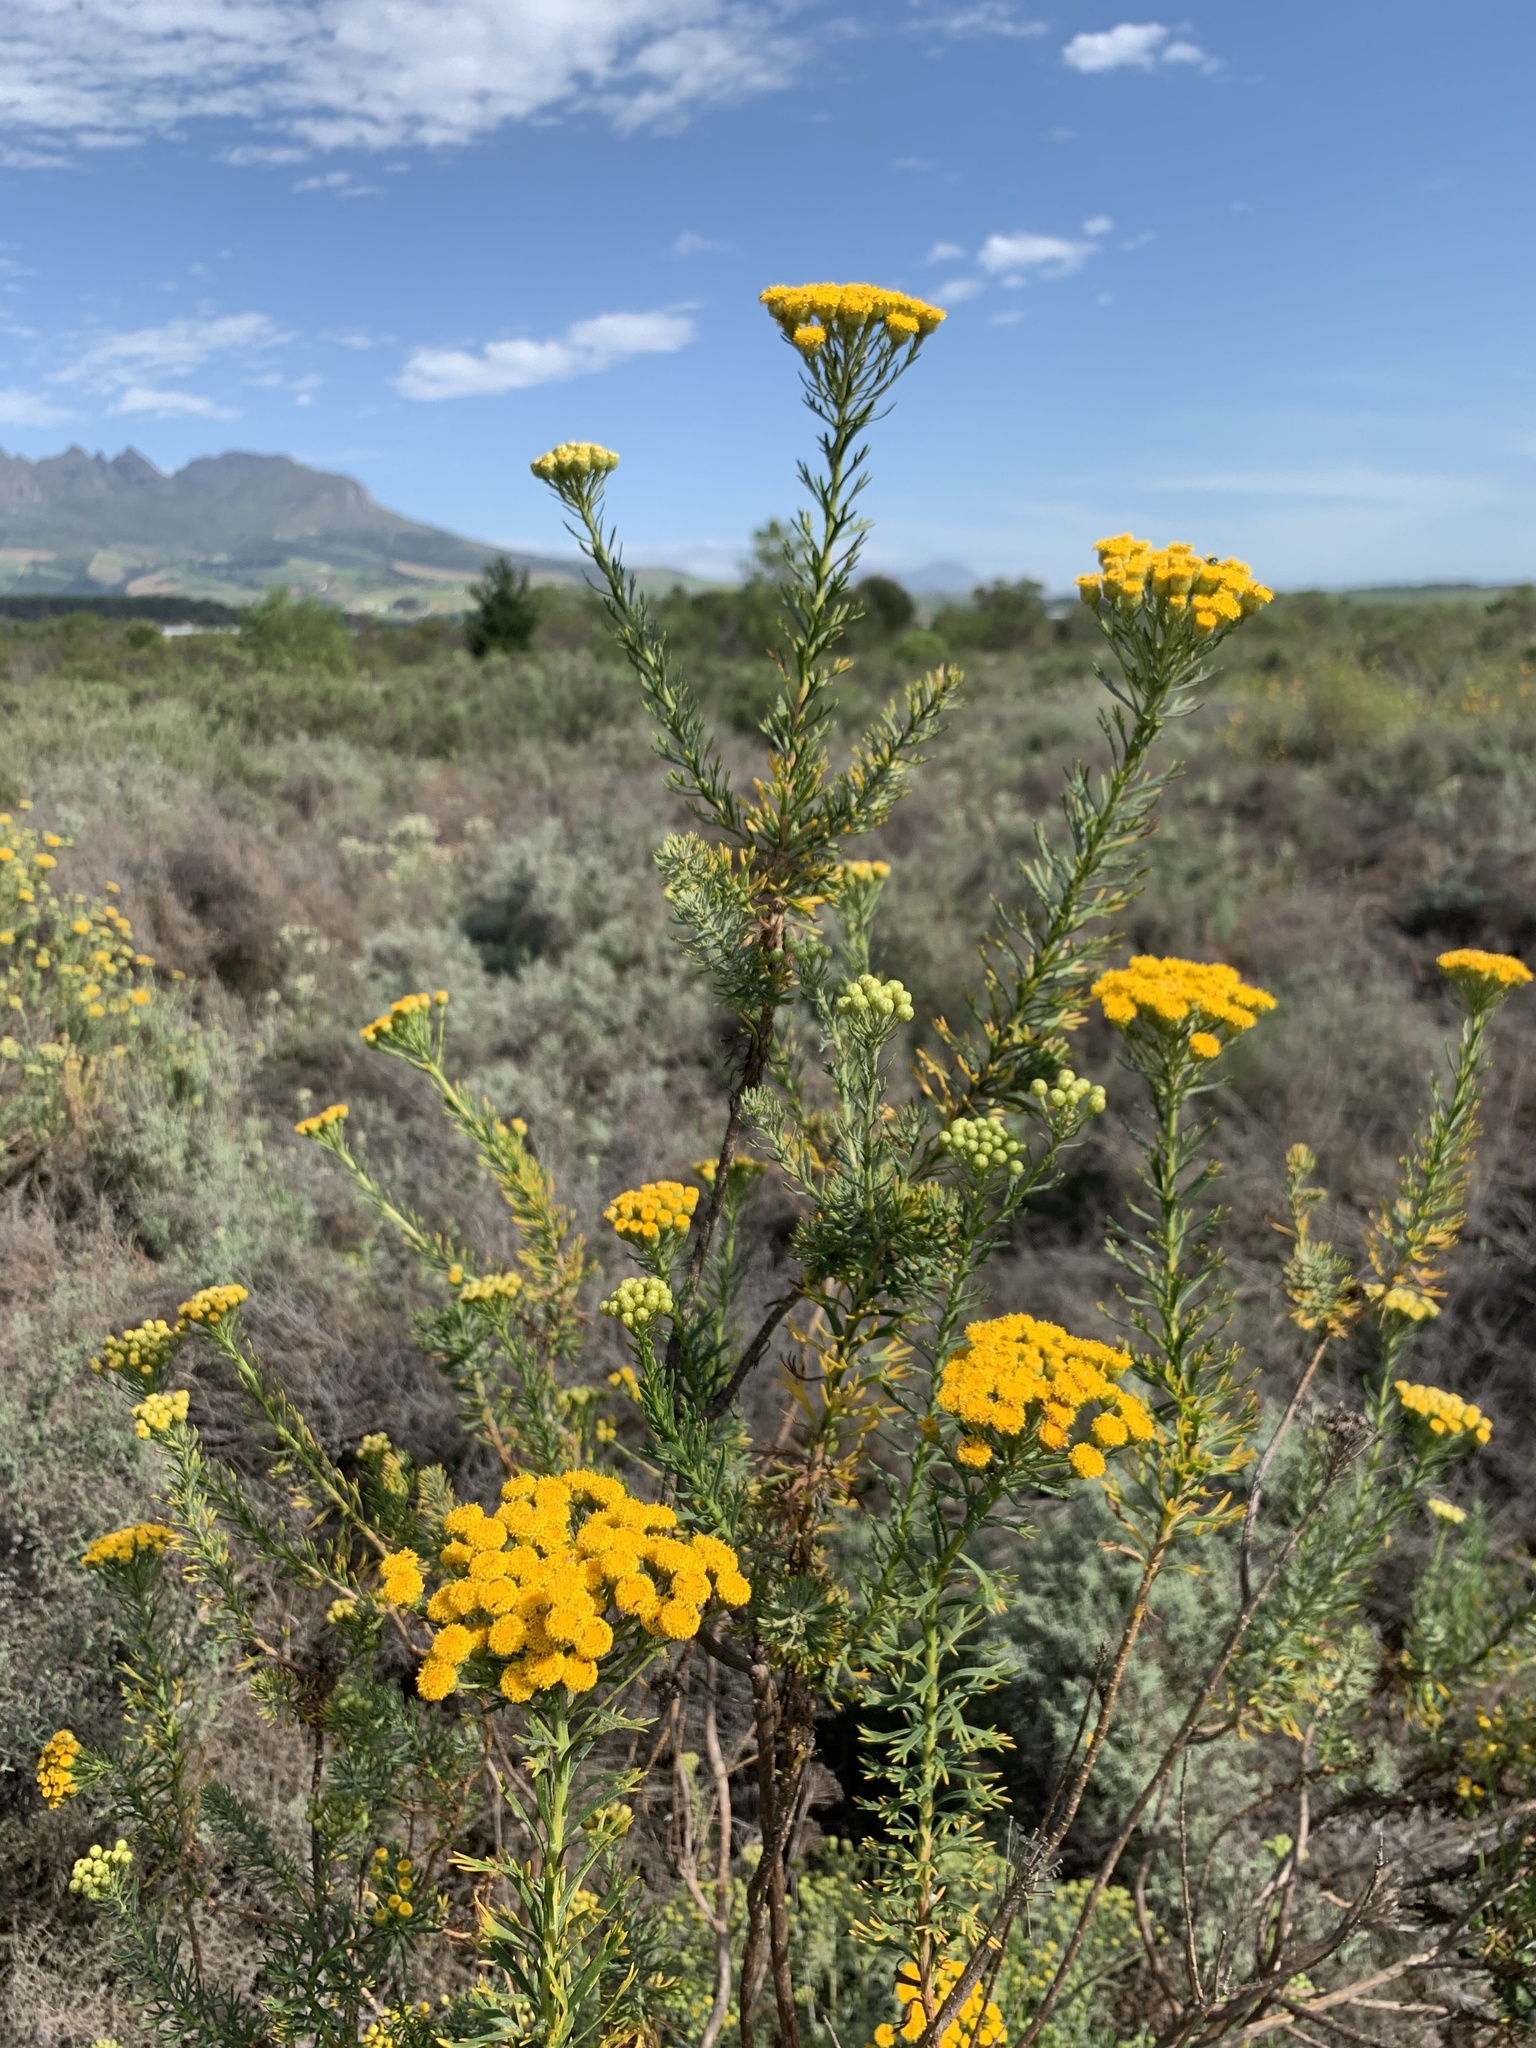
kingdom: Plantae
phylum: Tracheophyta
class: Magnoliopsida
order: Asterales
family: Asteraceae
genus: Athanasia
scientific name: Athanasia trifurcata
